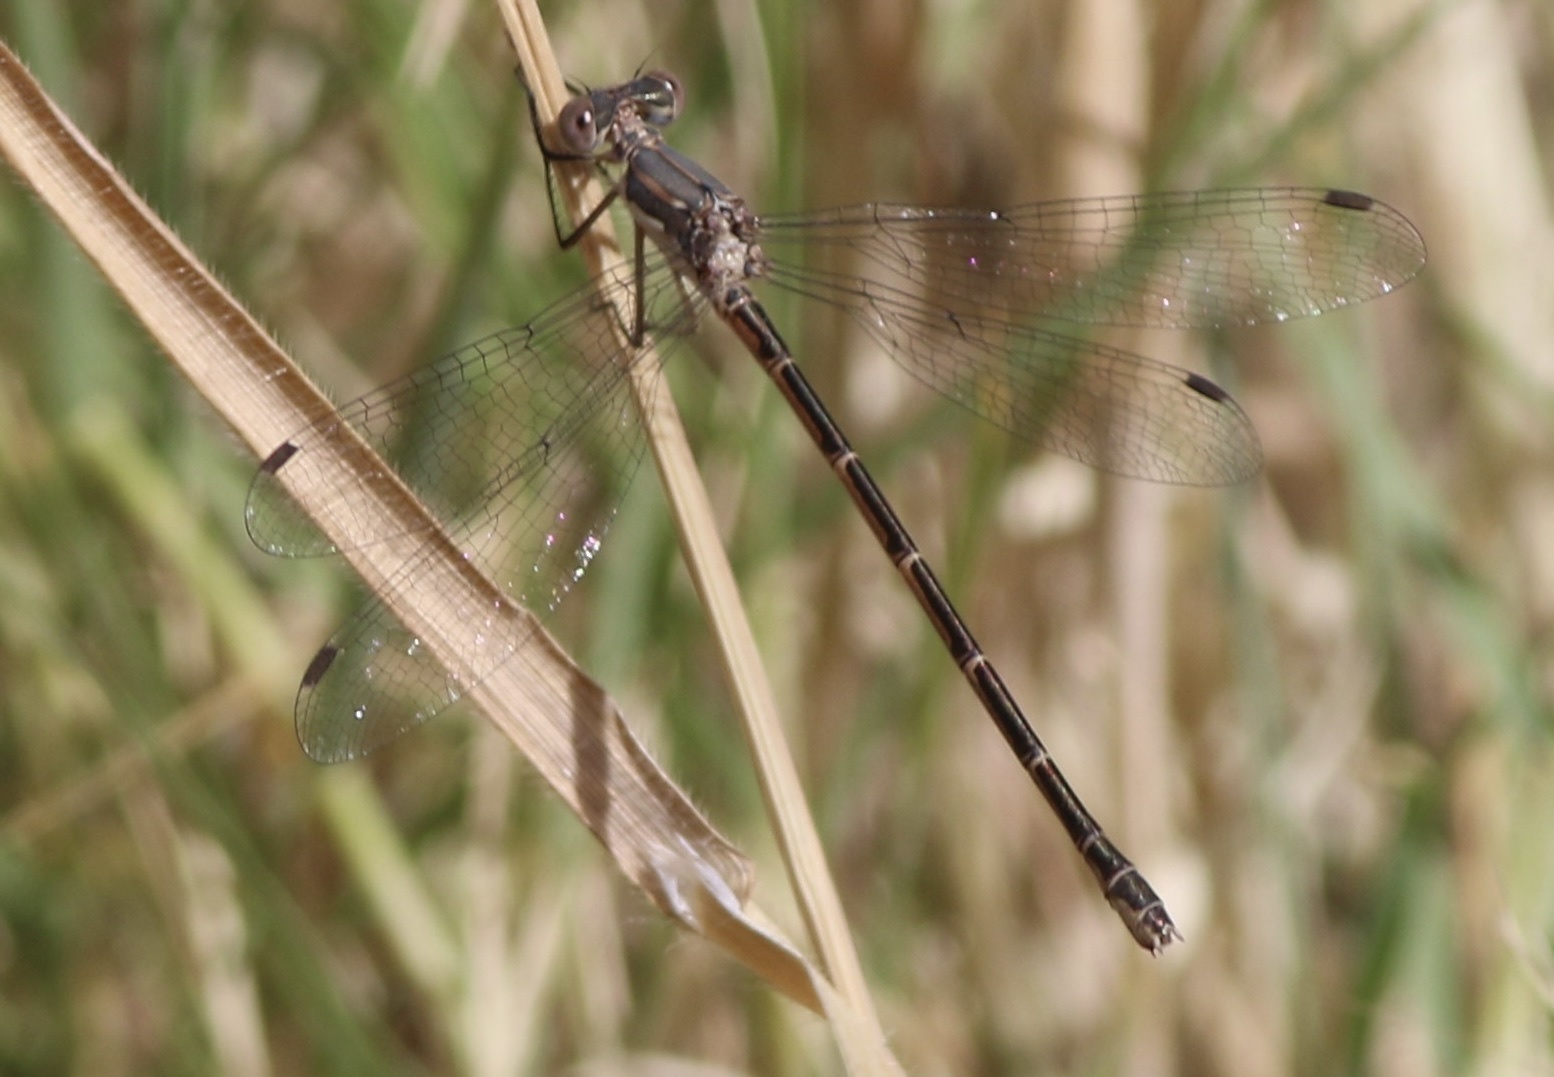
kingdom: Animalia
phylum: Arthropoda
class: Insecta
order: Odonata
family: Lestidae
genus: Lestes
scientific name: Lestes congener
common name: Spotted spreadwing
